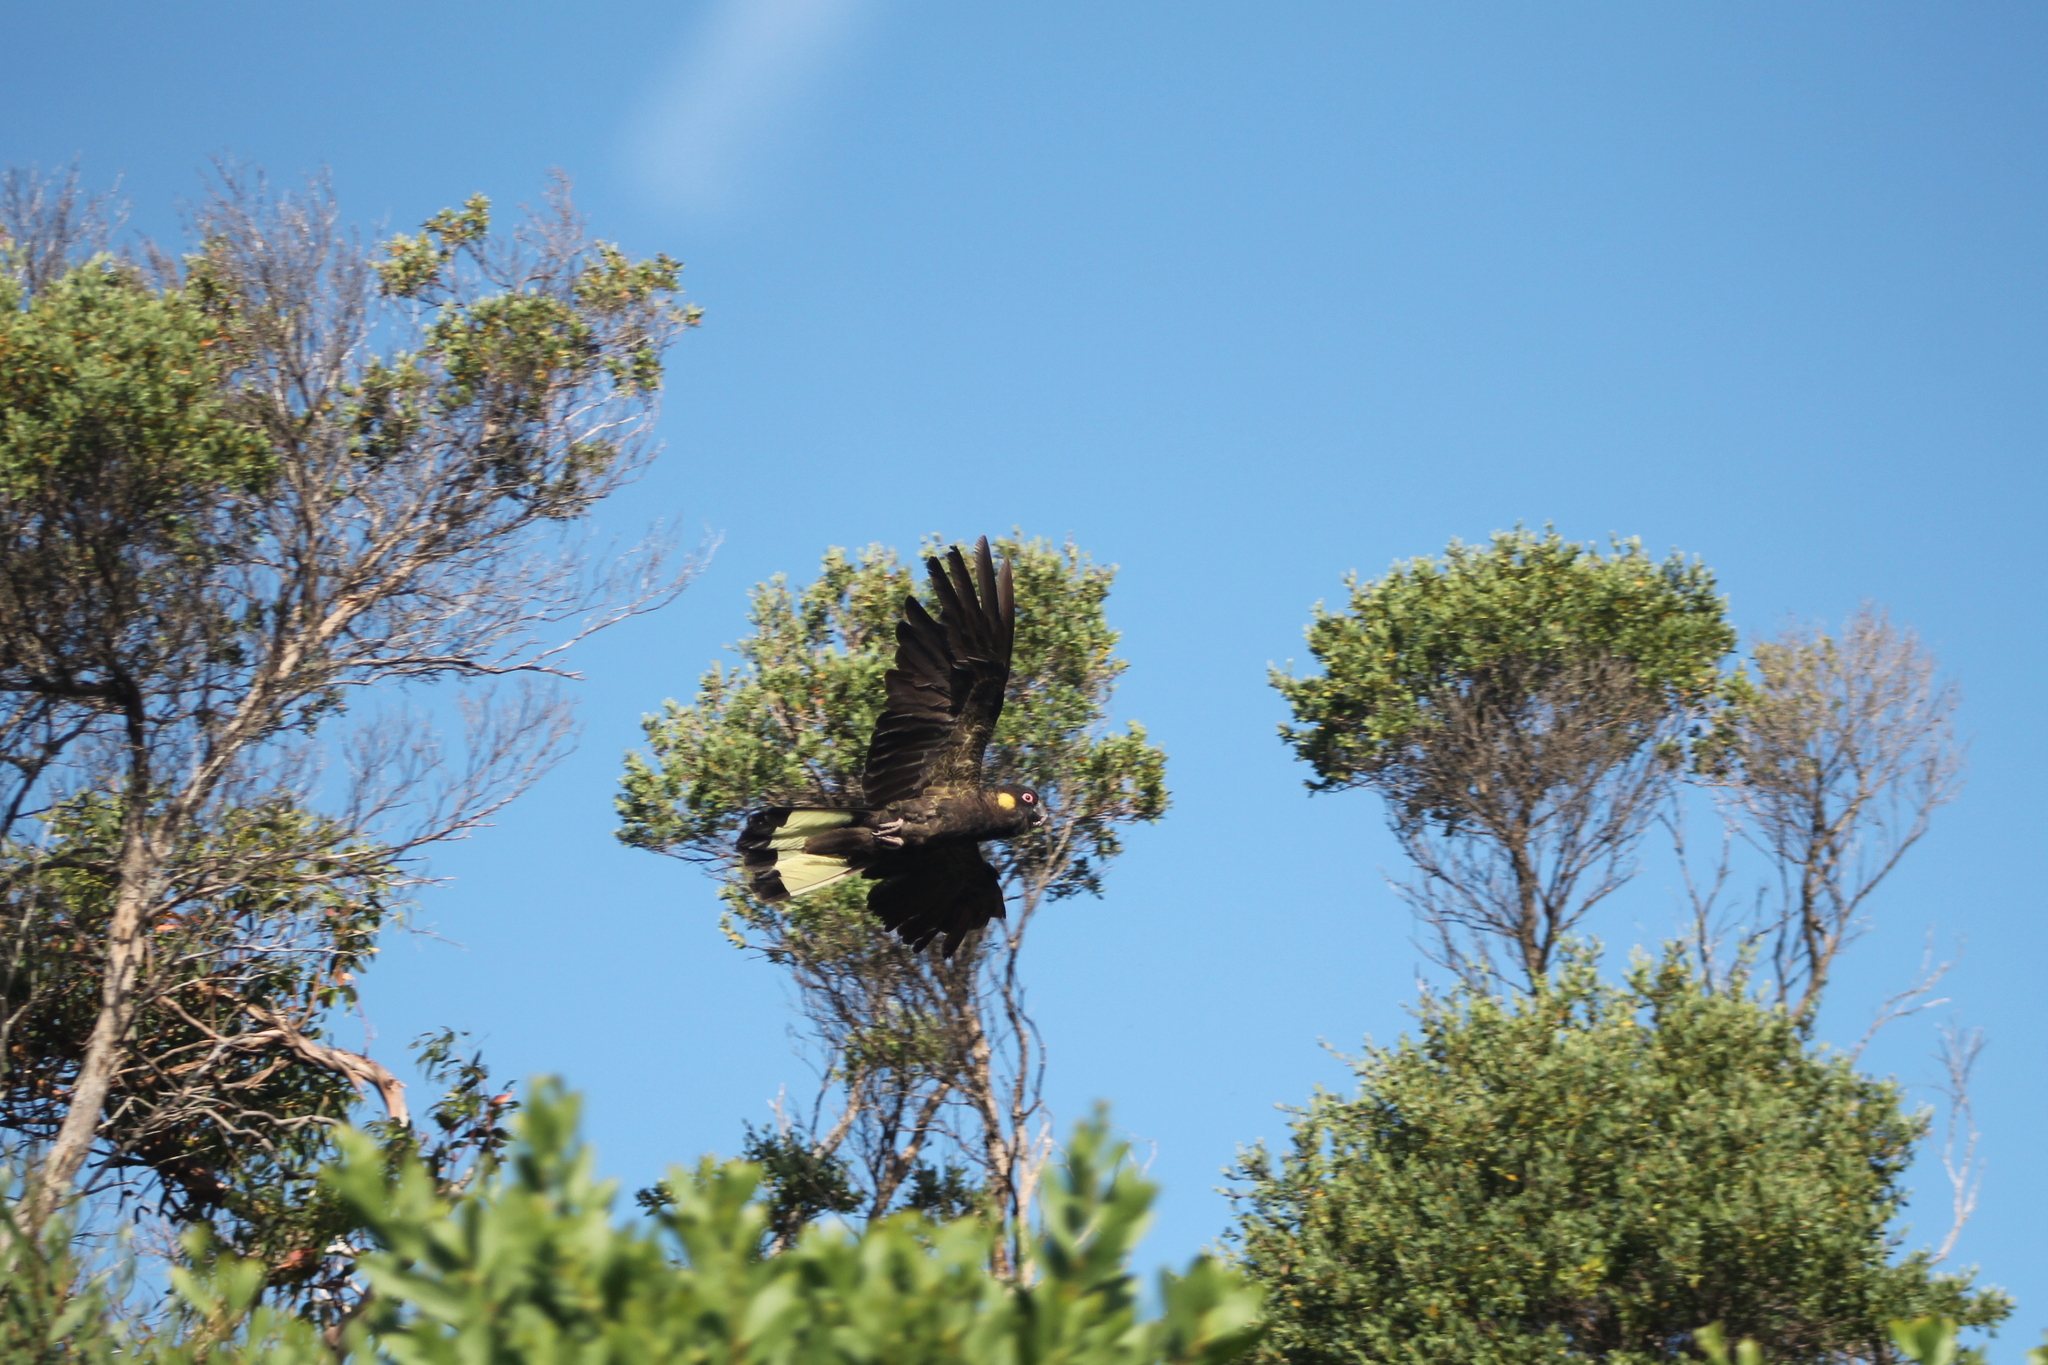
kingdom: Animalia
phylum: Chordata
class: Aves
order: Psittaciformes
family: Cacatuidae
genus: Zanda
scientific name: Zanda funerea
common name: Yellow-tailed black-cockatoo
